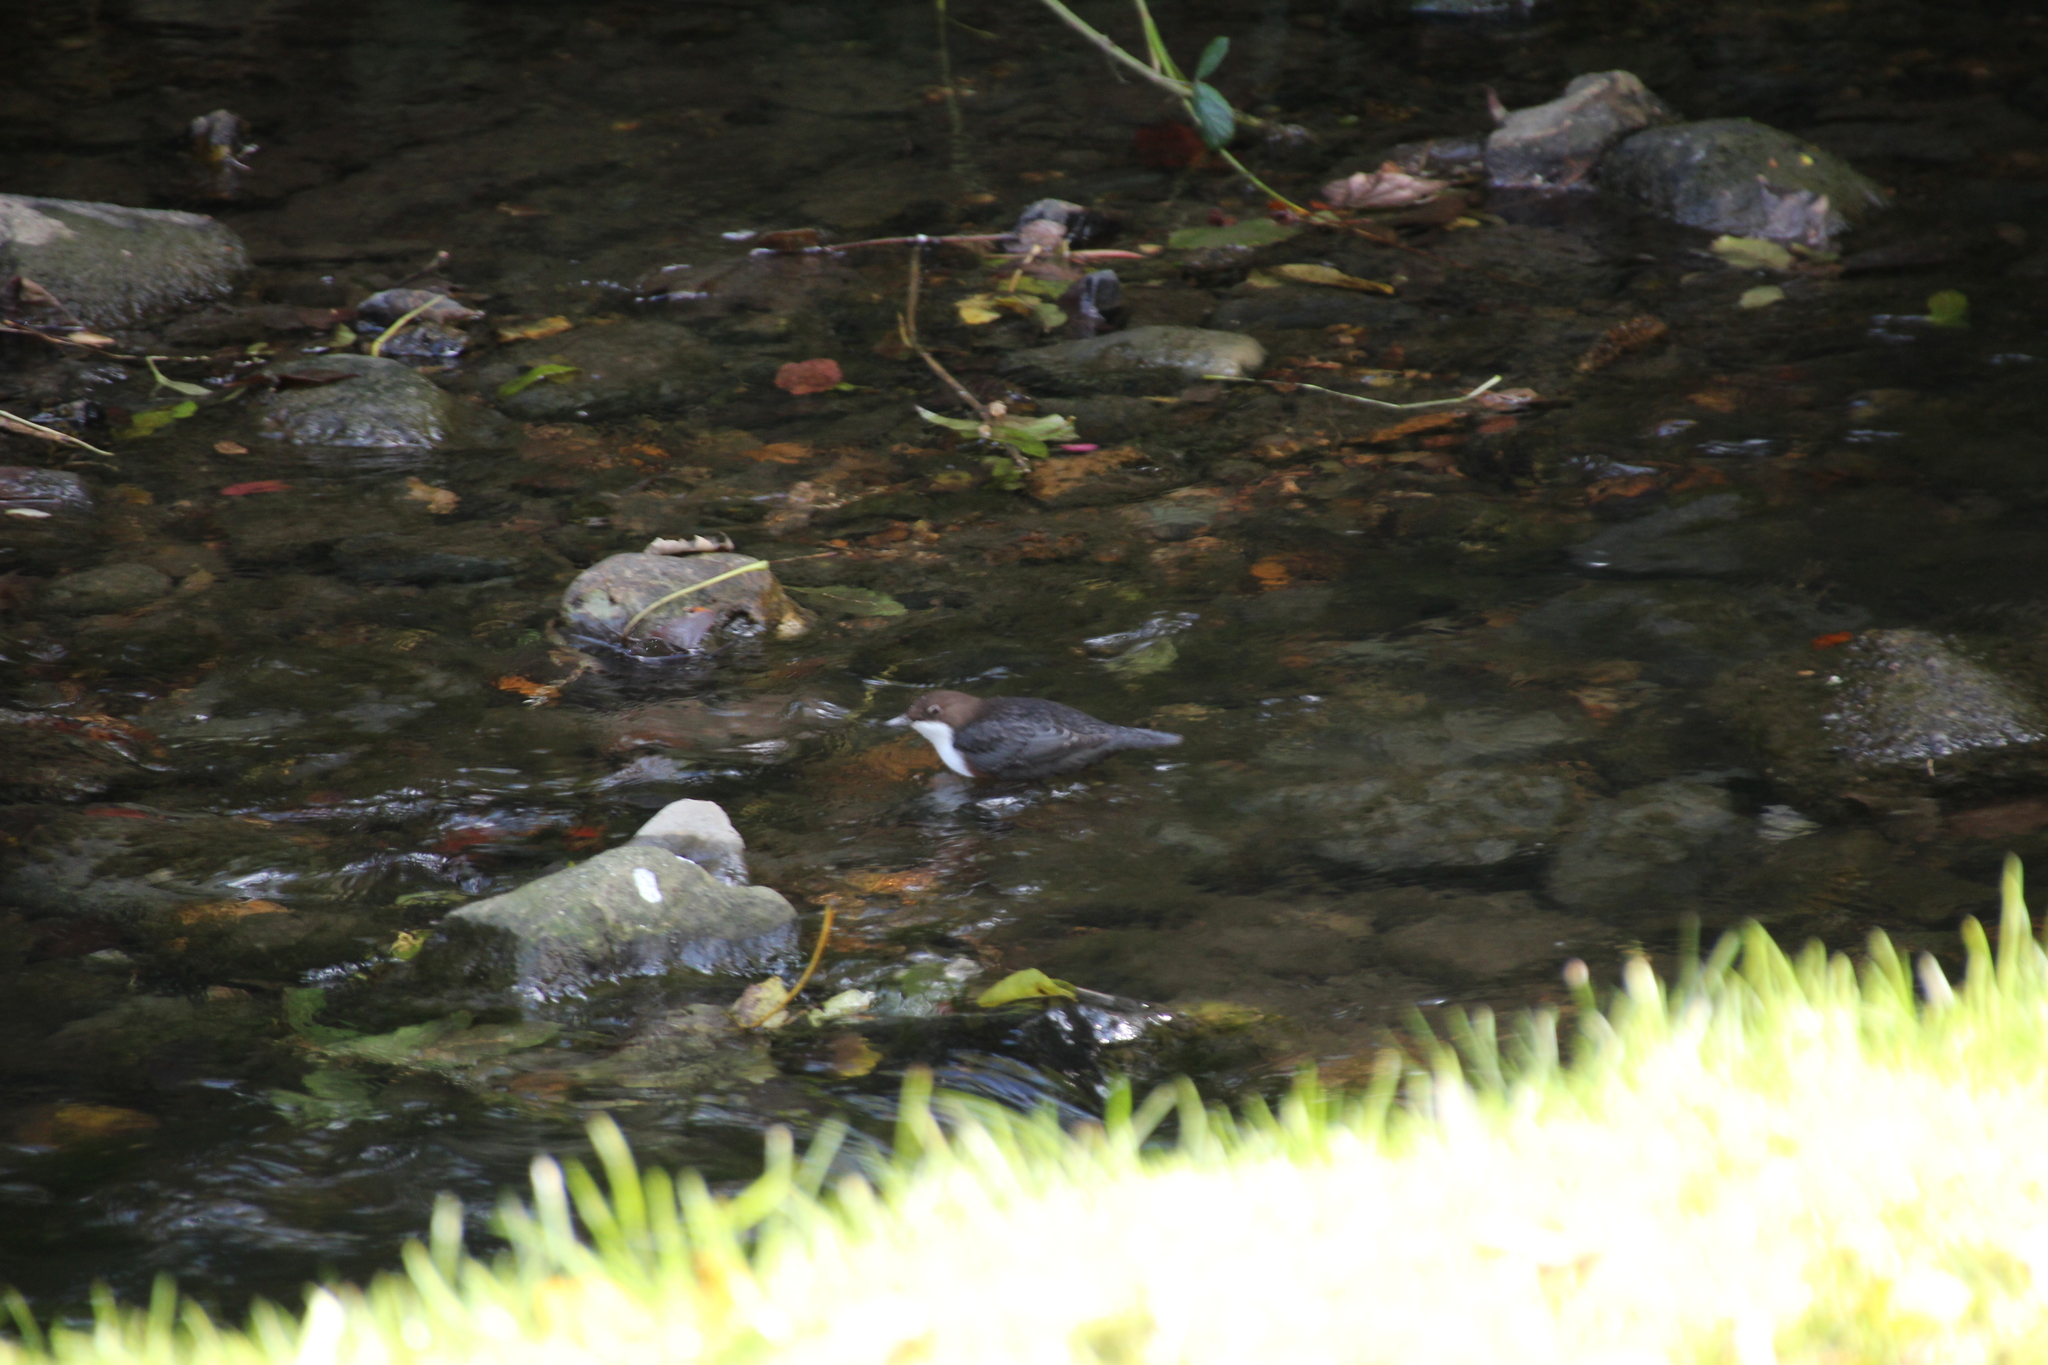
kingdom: Animalia
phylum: Chordata
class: Aves
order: Passeriformes
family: Cinclidae
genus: Cinclus
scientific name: Cinclus cinclus
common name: White-throated dipper
